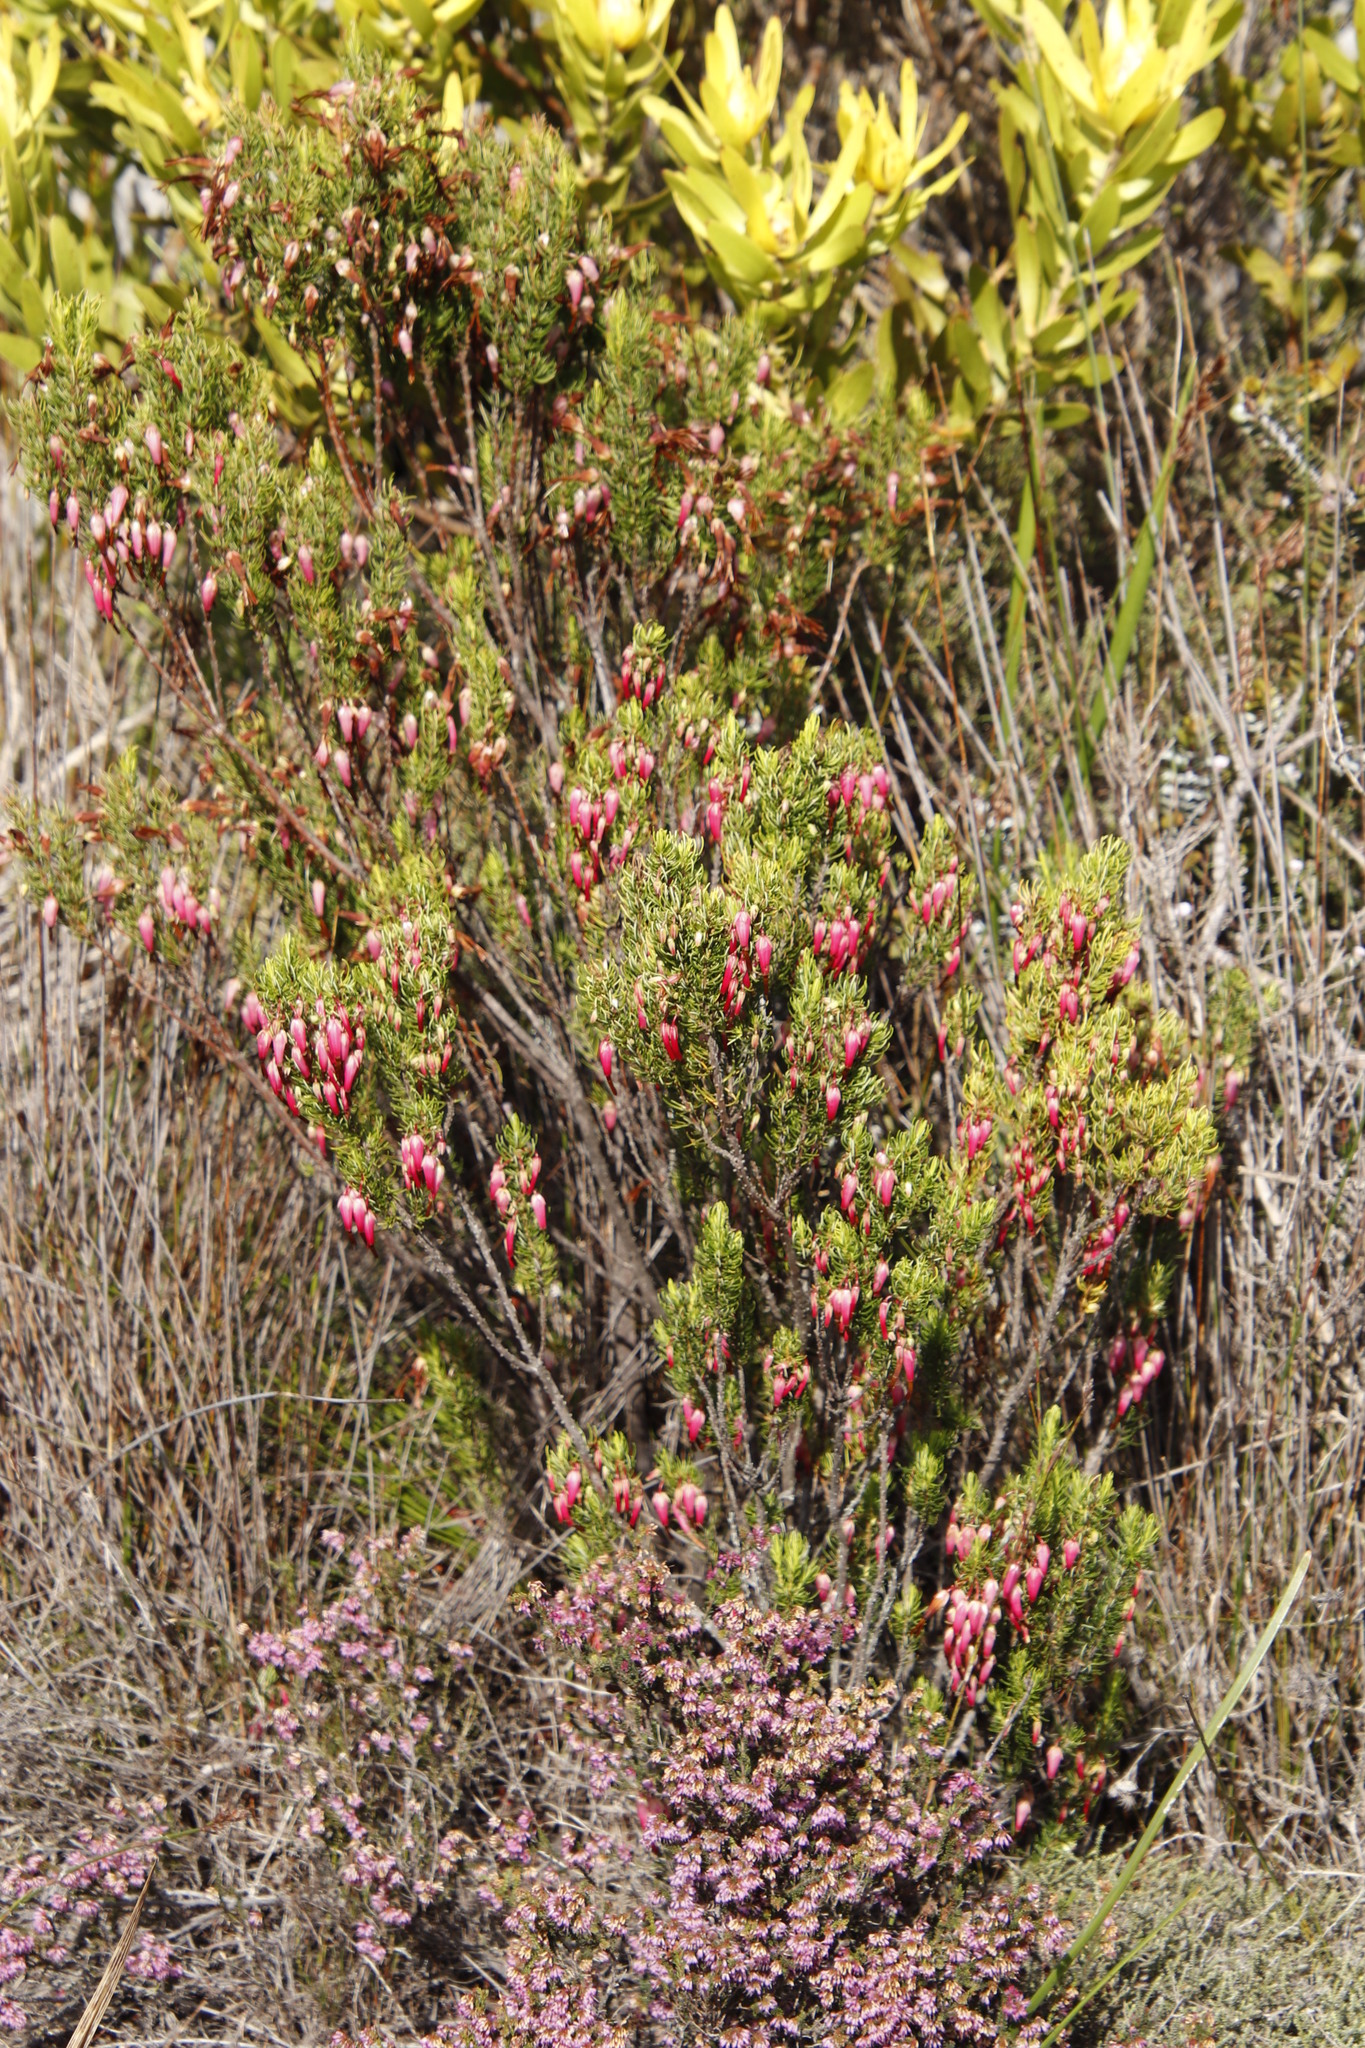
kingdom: Plantae
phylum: Tracheophyta
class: Magnoliopsida
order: Ericales
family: Ericaceae
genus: Erica
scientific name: Erica plukenetii
